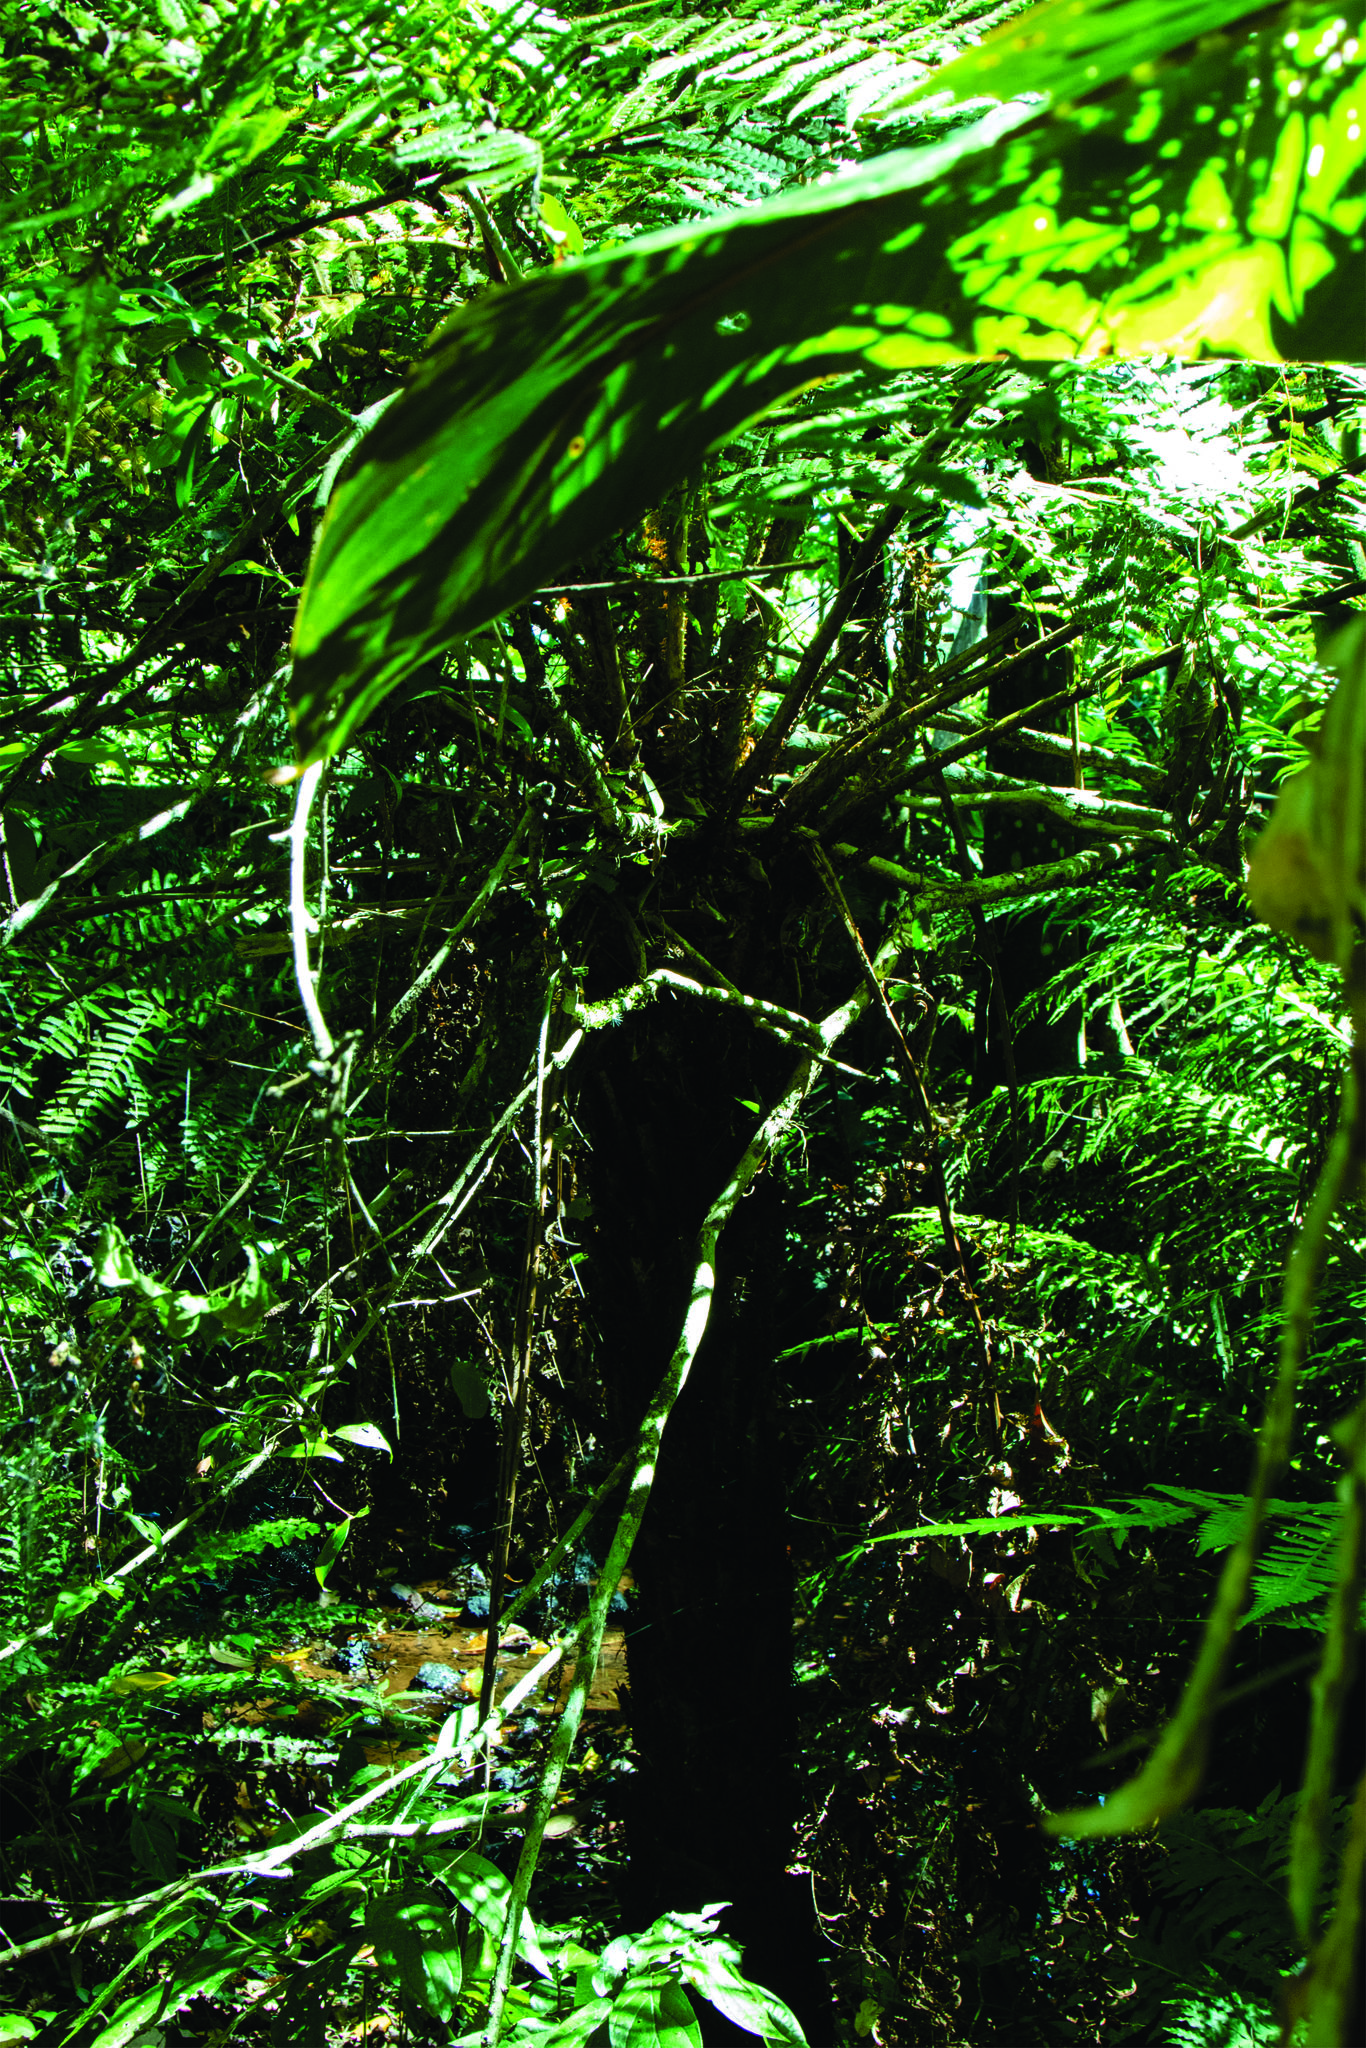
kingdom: Plantae
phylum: Tracheophyta
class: Polypodiopsida
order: Cyatheales
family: Cyatheaceae
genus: Cyathea
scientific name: Cyathea atrovirens
